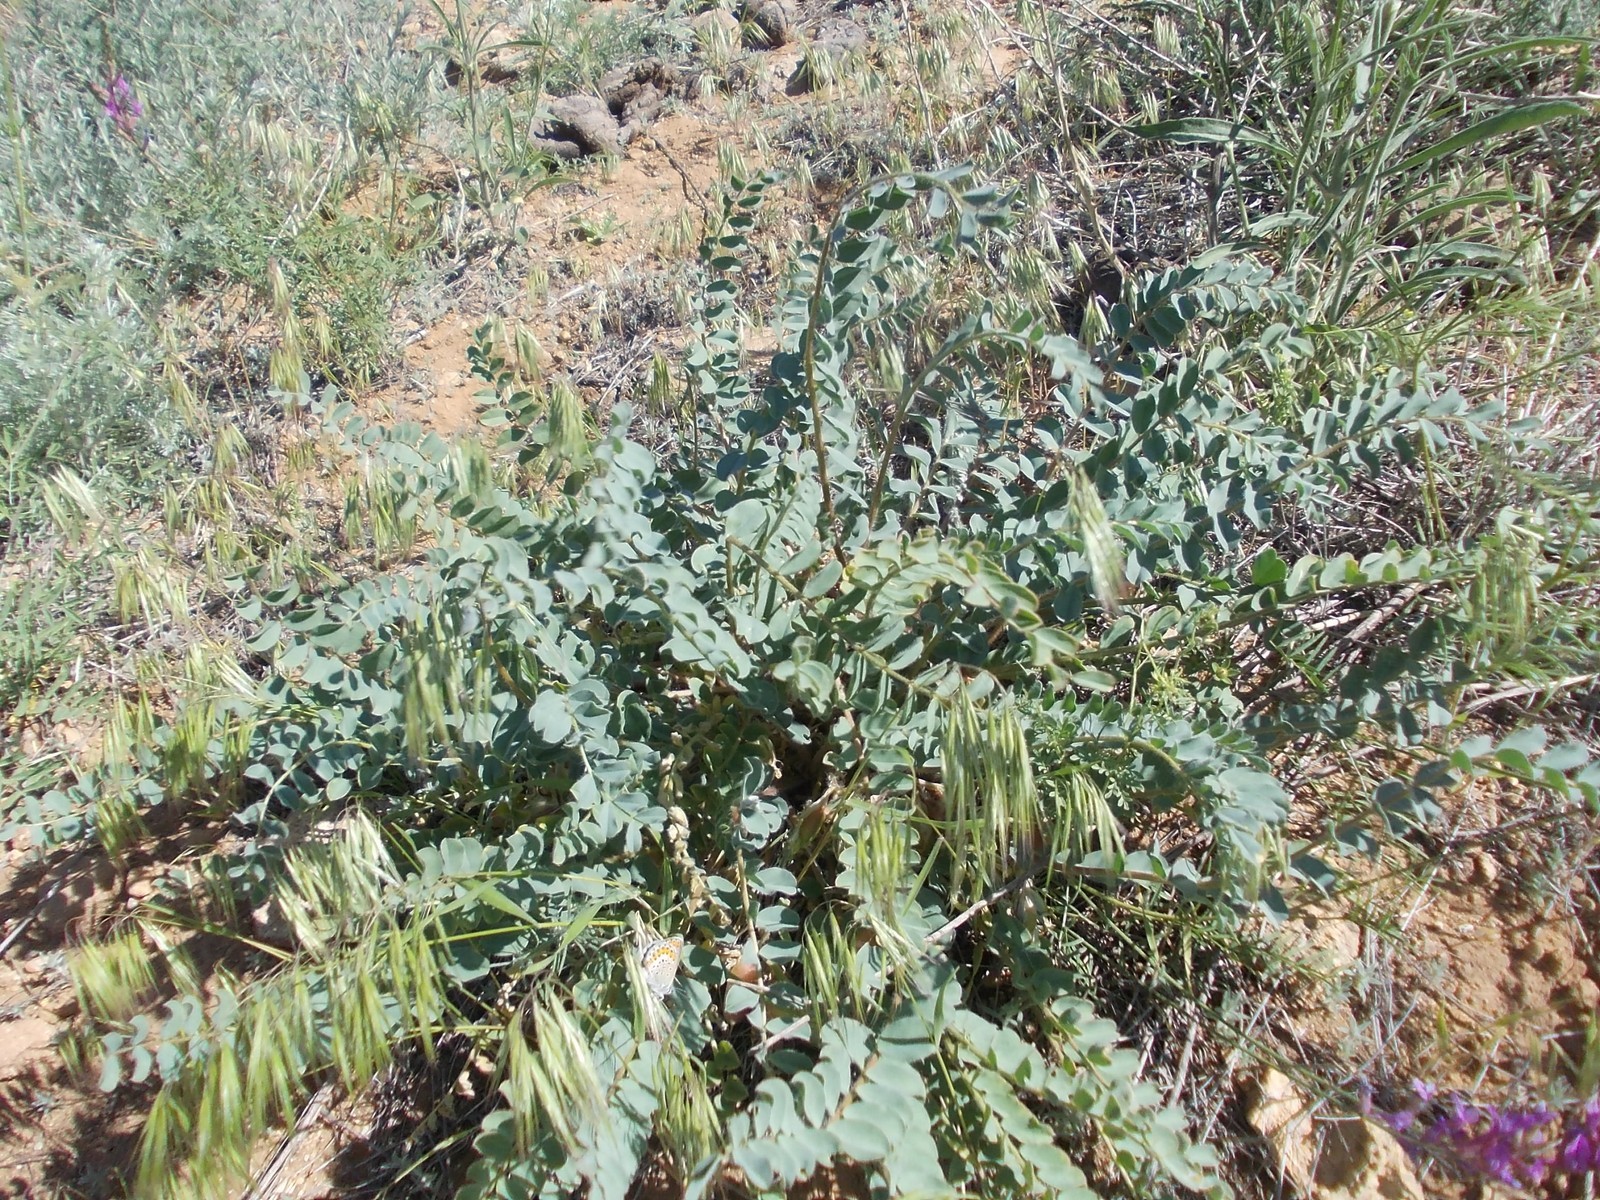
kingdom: Plantae
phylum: Tracheophyta
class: Magnoliopsida
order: Fabales
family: Fabaceae
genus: Astragalus
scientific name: Astragalus physodes
